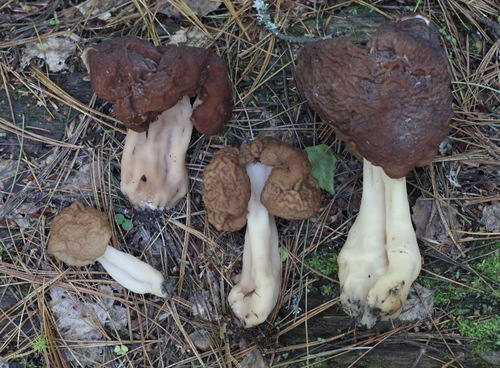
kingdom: Fungi
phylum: Ascomycota
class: Pezizomycetes
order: Pezizales
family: Discinaceae
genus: Gyromitra
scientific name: Gyromitra esculenta
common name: False morel
